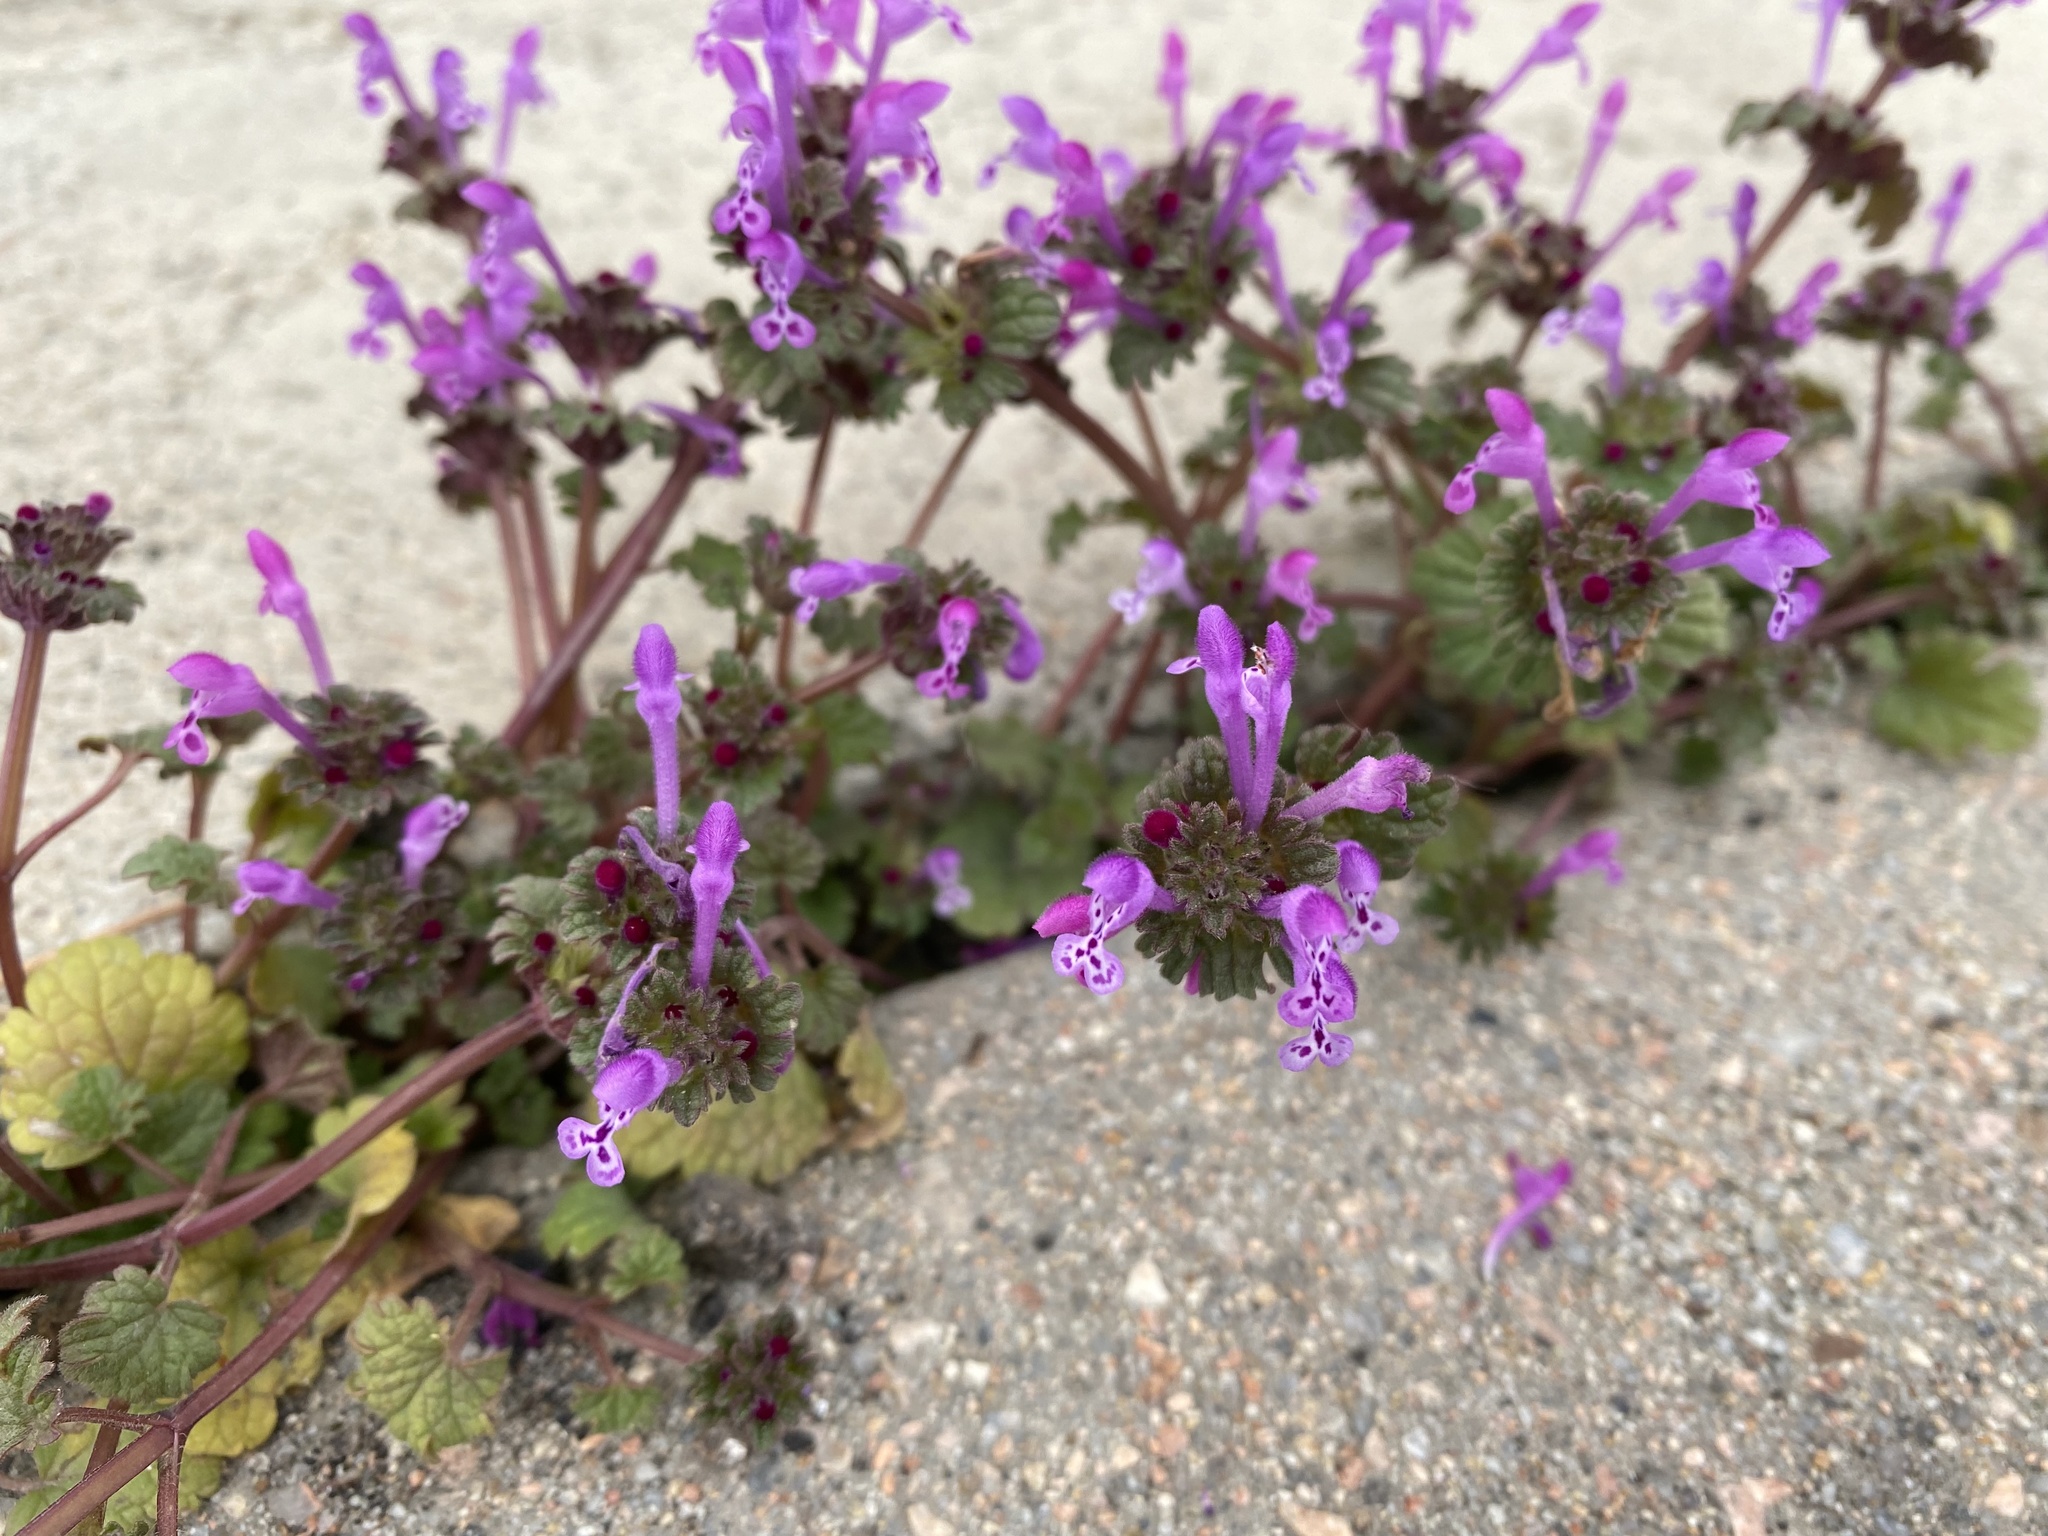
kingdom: Plantae
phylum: Tracheophyta
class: Magnoliopsida
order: Lamiales
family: Lamiaceae
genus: Lamium
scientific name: Lamium amplexicaule
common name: Henbit dead-nettle
